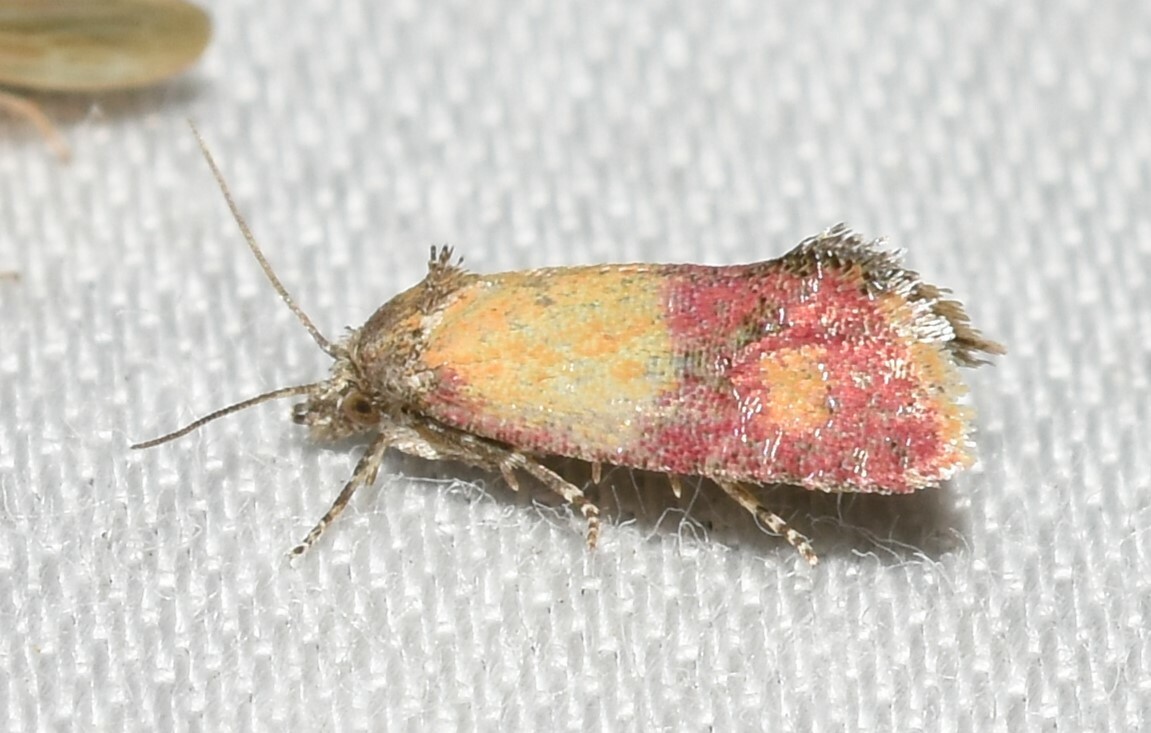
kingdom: Animalia
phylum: Arthropoda
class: Insecta
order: Lepidoptera
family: Tortricidae
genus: Conchylis
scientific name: Conchylis oenotherana
